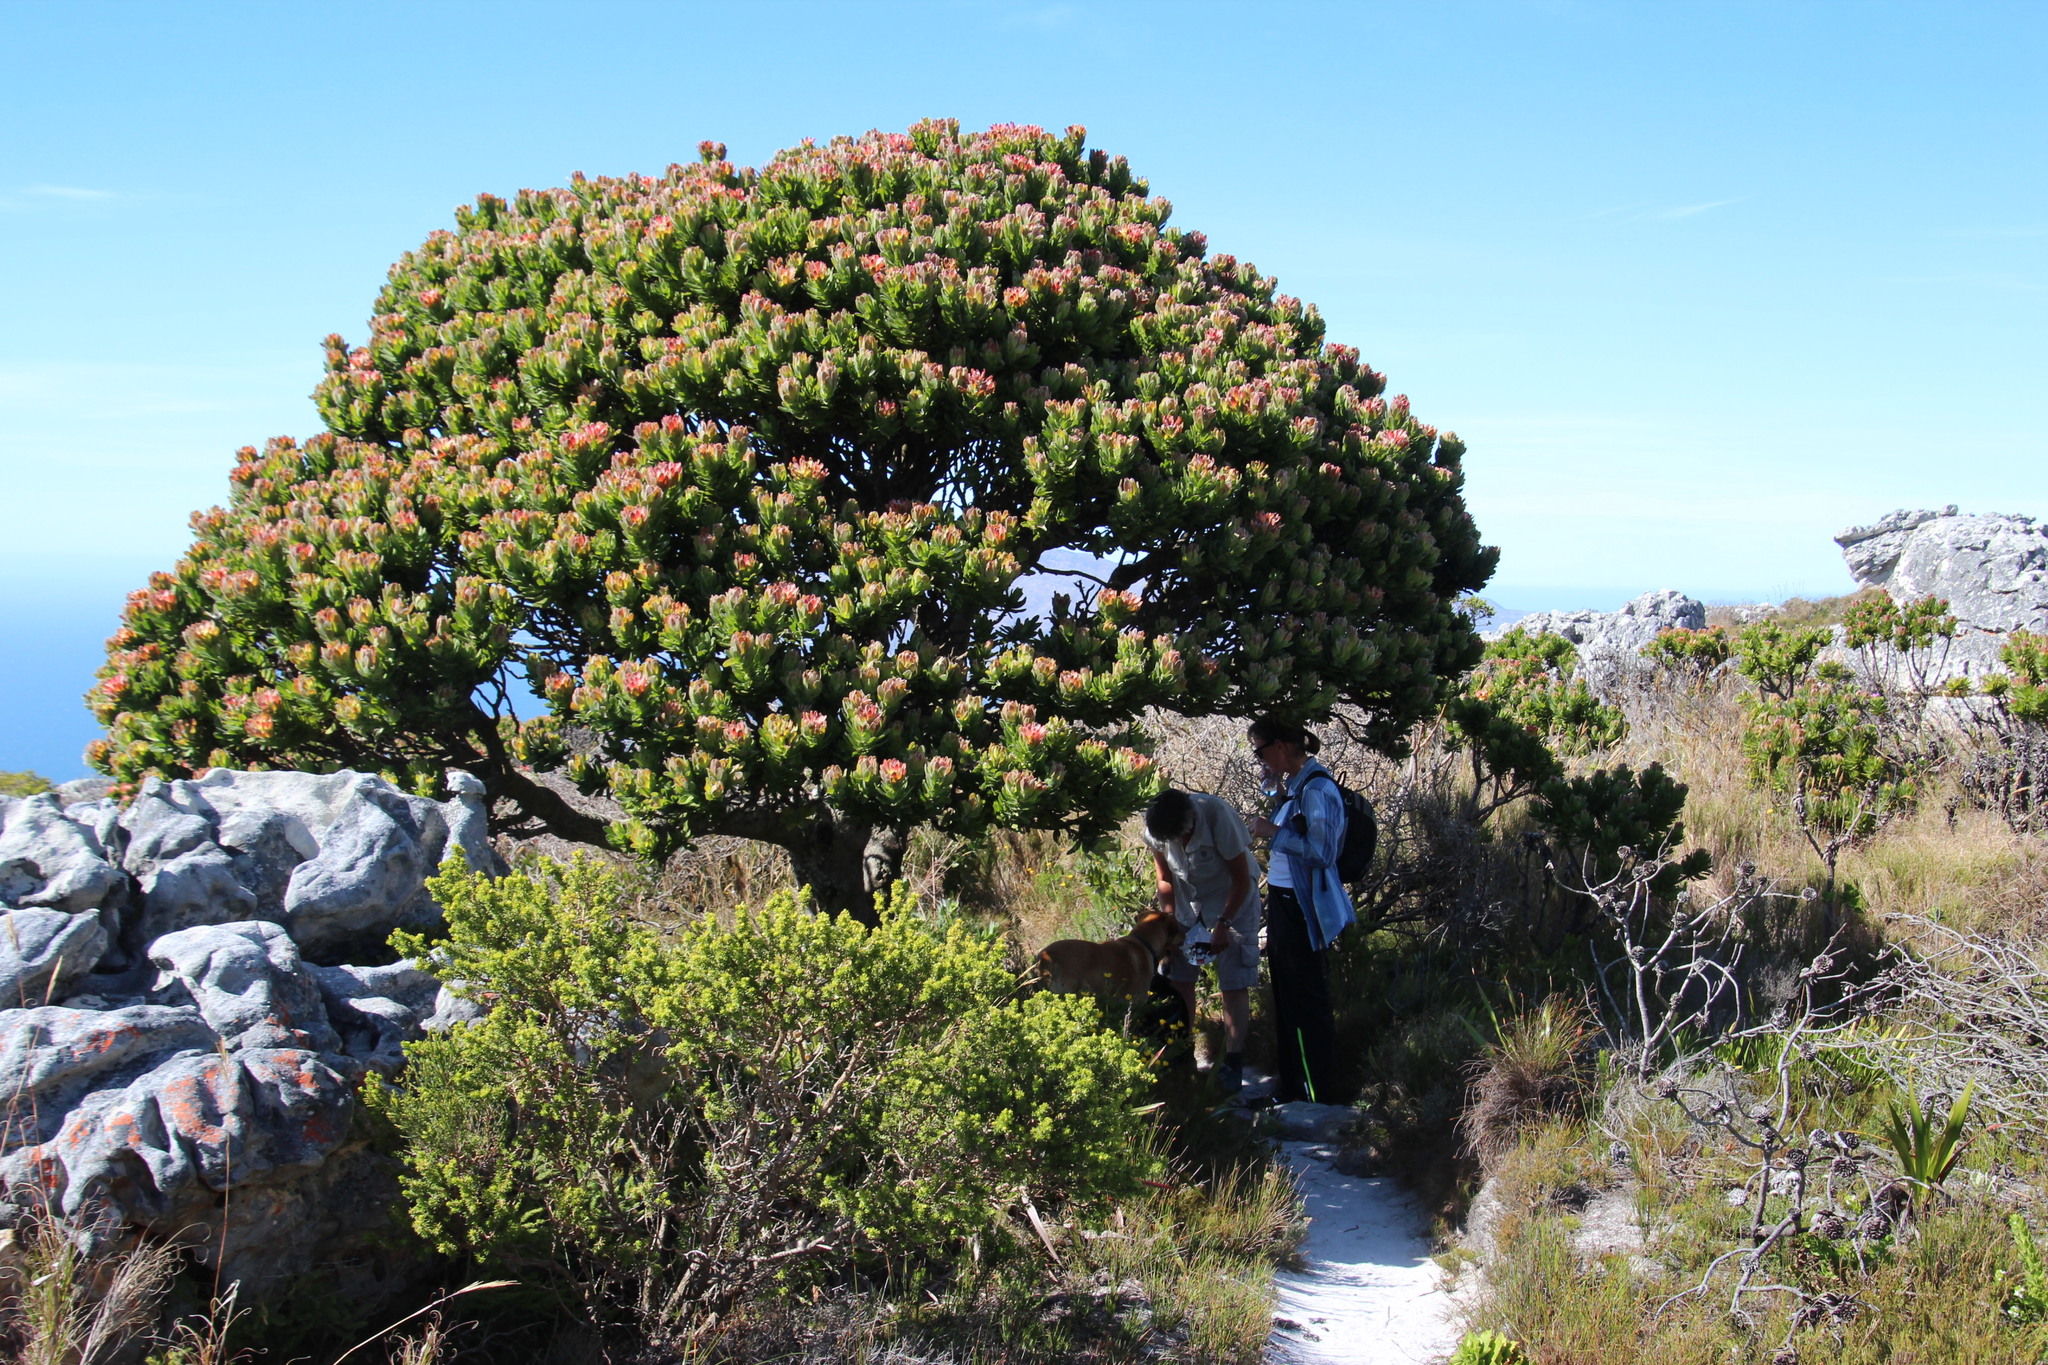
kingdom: Plantae
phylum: Tracheophyta
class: Magnoliopsida
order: Proteales
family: Proteaceae
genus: Mimetes
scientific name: Mimetes fimbriifolius
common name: Fringed bottlebrush
